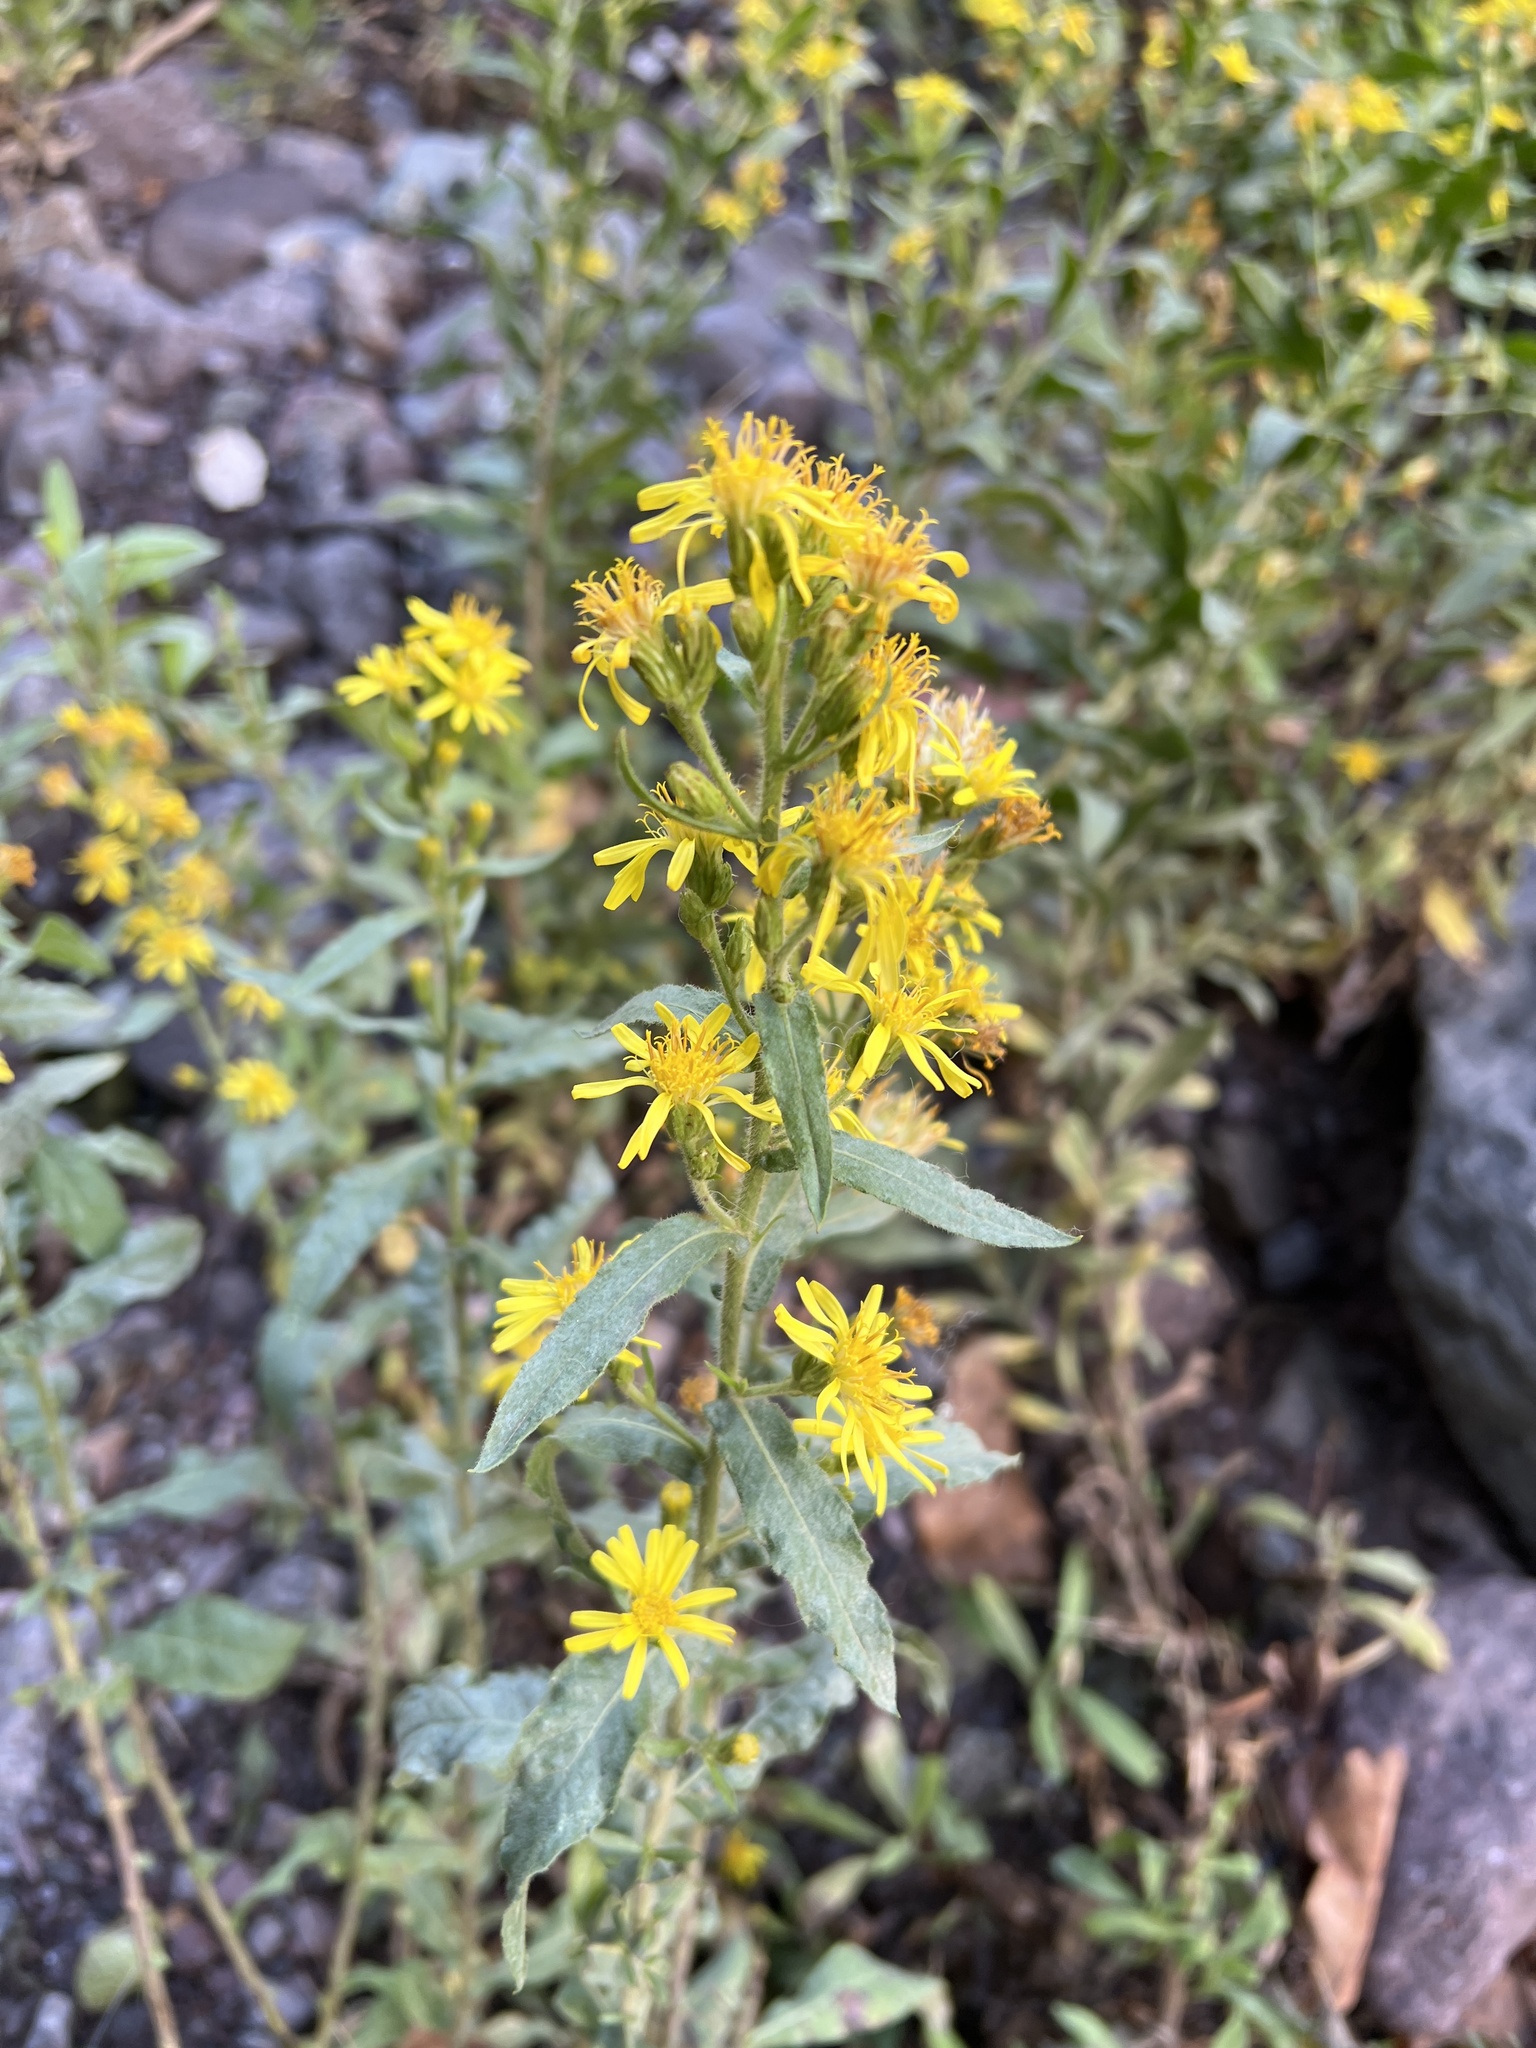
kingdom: Plantae
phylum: Tracheophyta
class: Magnoliopsida
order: Asterales
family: Asteraceae
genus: Dittrichia
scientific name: Dittrichia viscosa
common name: Woody fleabane
